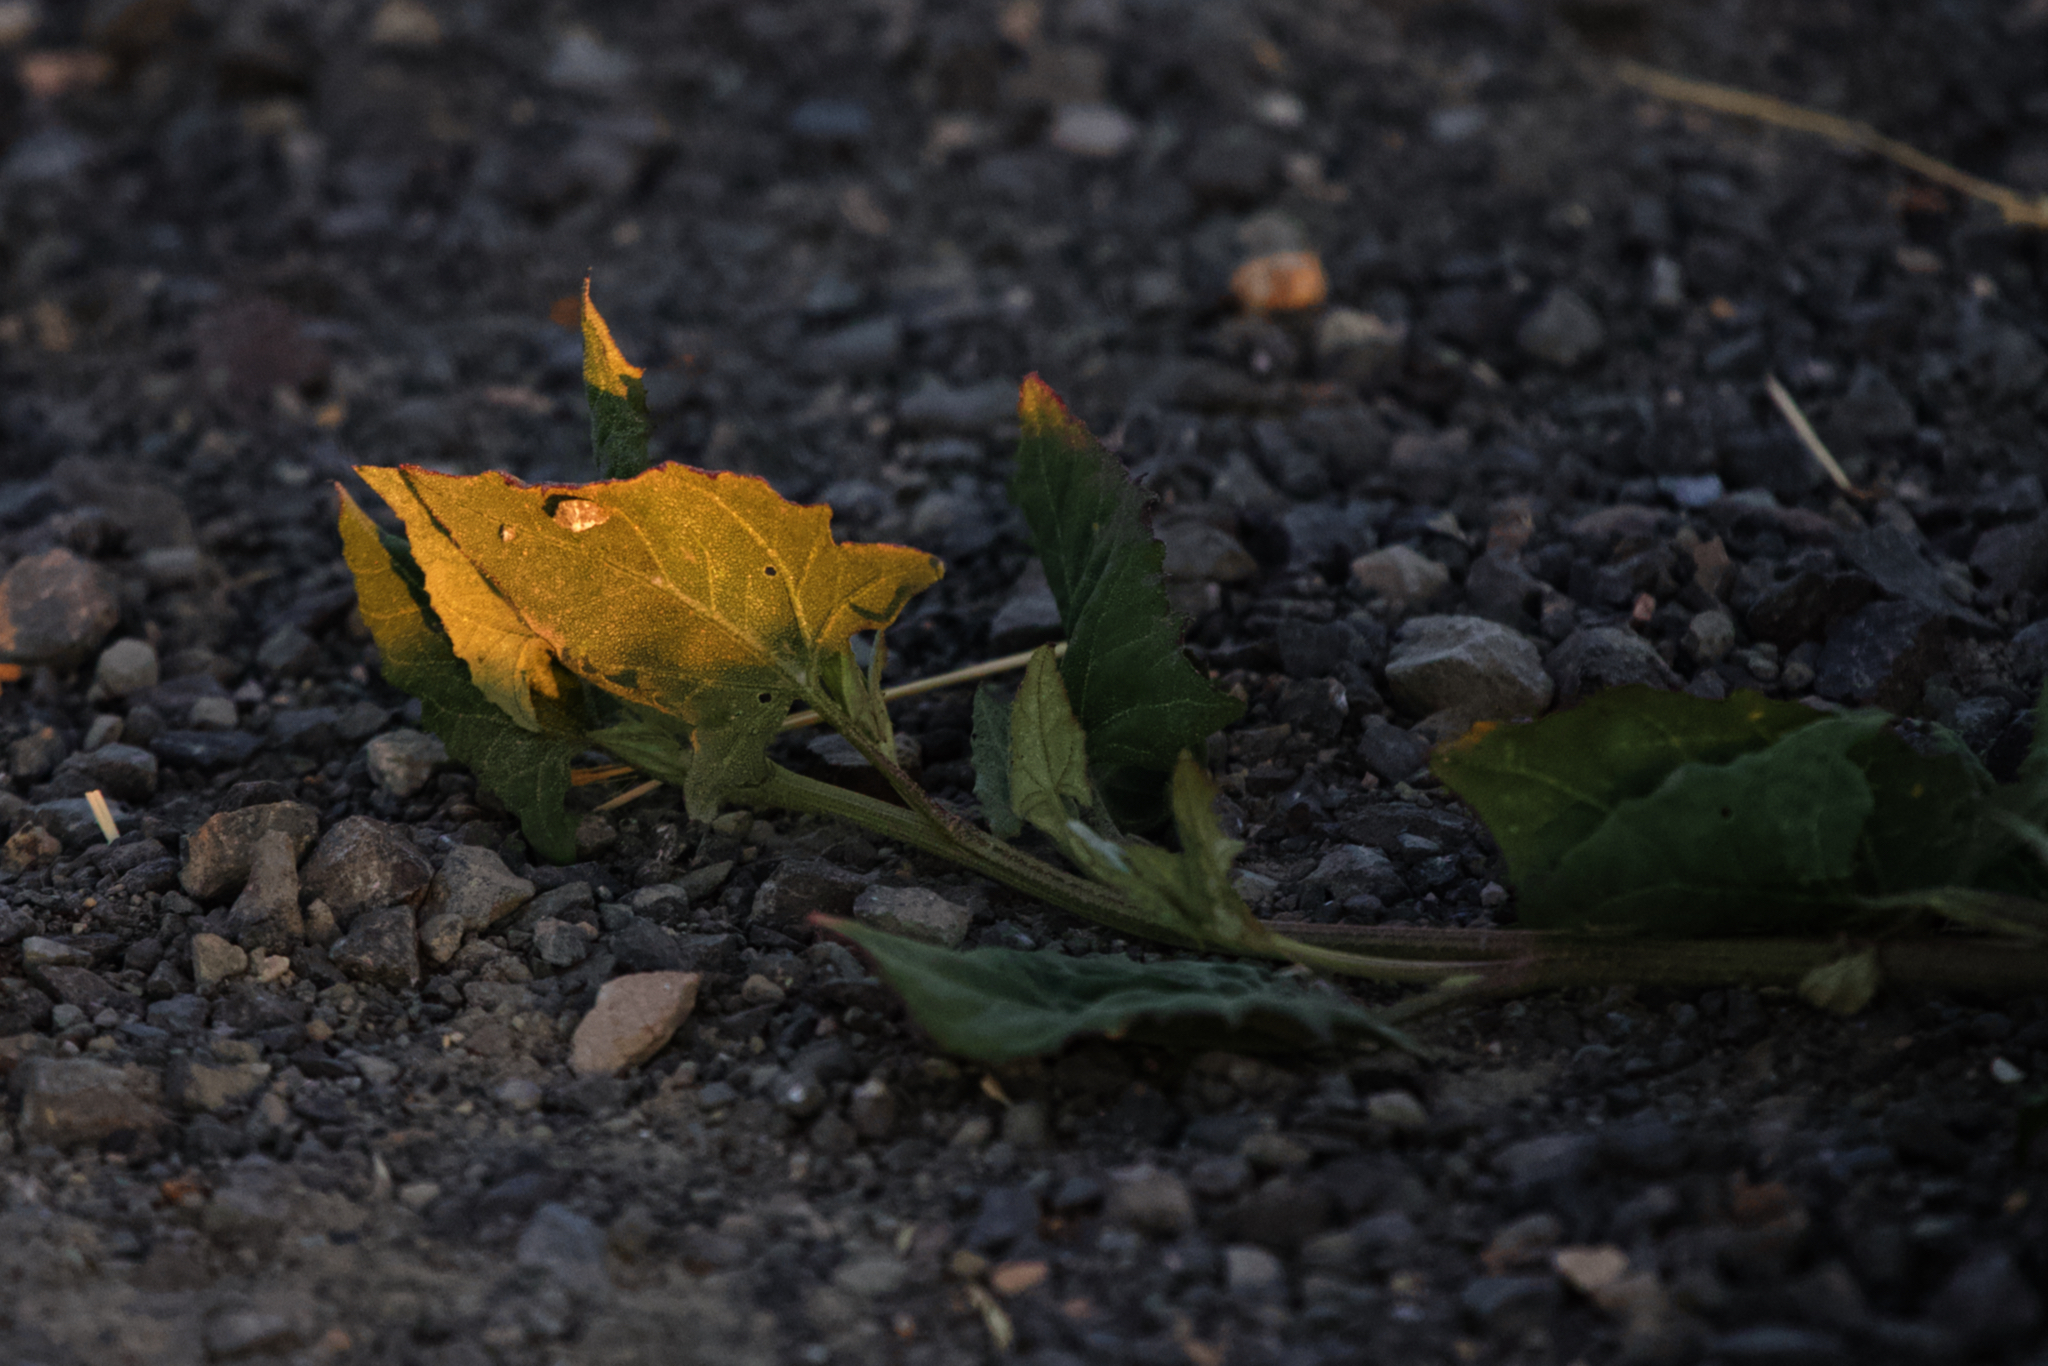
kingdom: Plantae
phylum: Tracheophyta
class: Magnoliopsida
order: Caryophyllales
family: Amaranthaceae
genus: Atriplex
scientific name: Atriplex prostrata
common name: Spear-leaved orache
